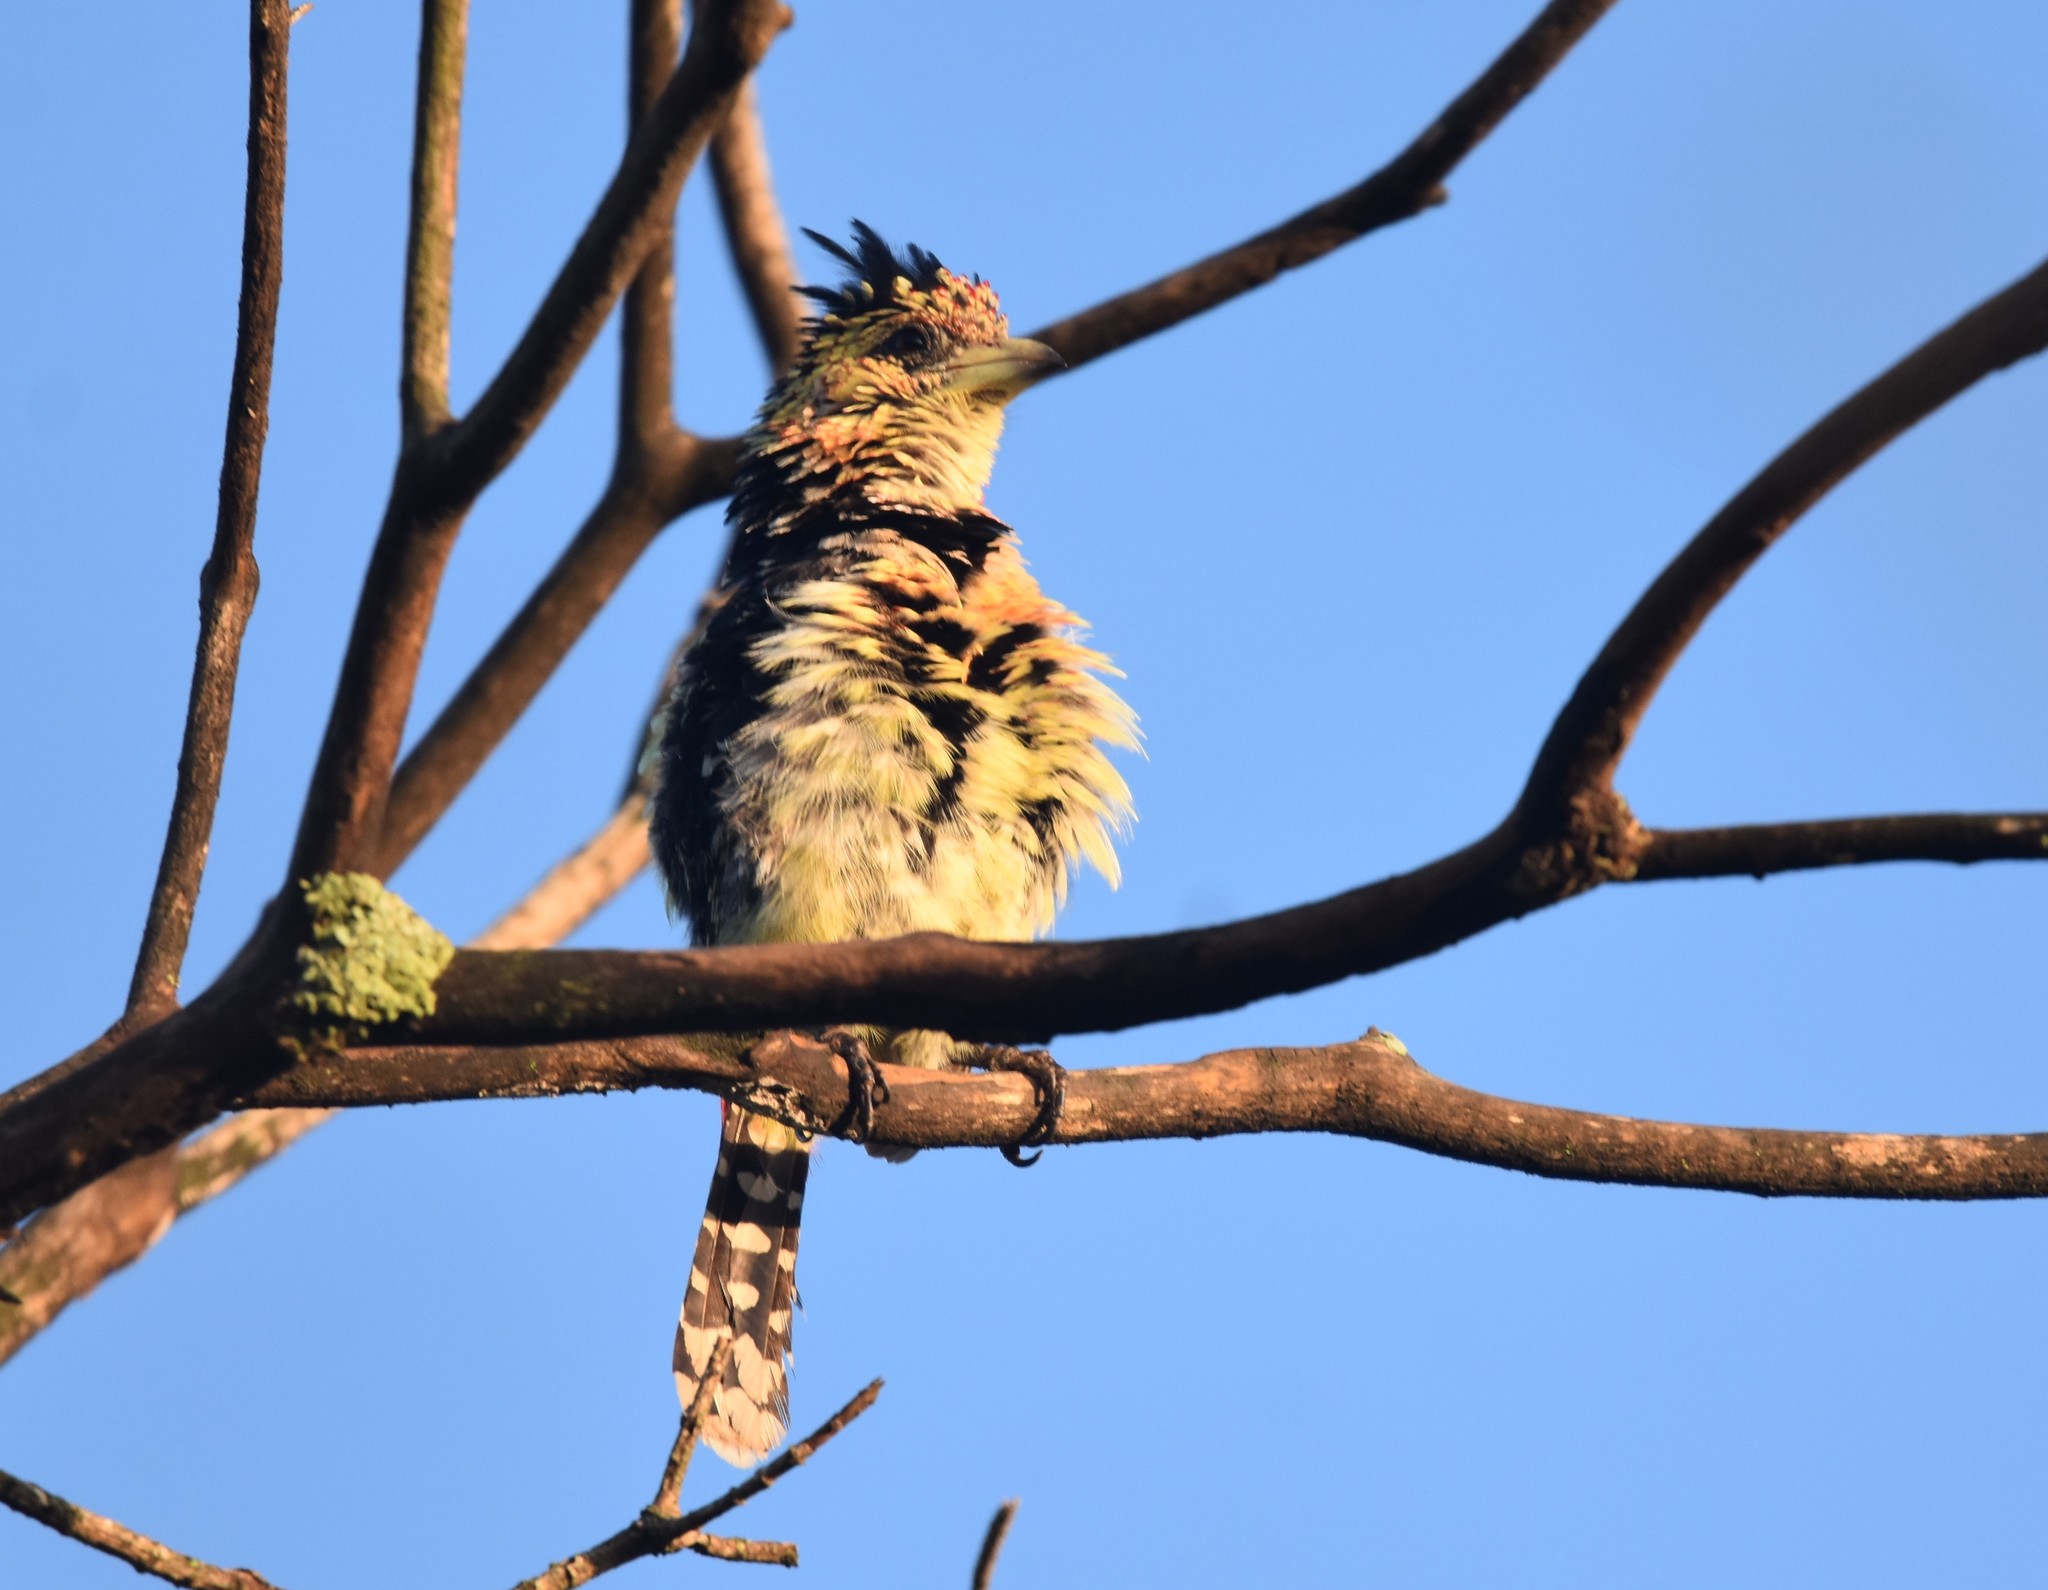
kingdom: Animalia
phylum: Chordata
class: Aves
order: Piciformes
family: Lybiidae
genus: Trachyphonus
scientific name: Trachyphonus vaillantii
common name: Crested barbet
